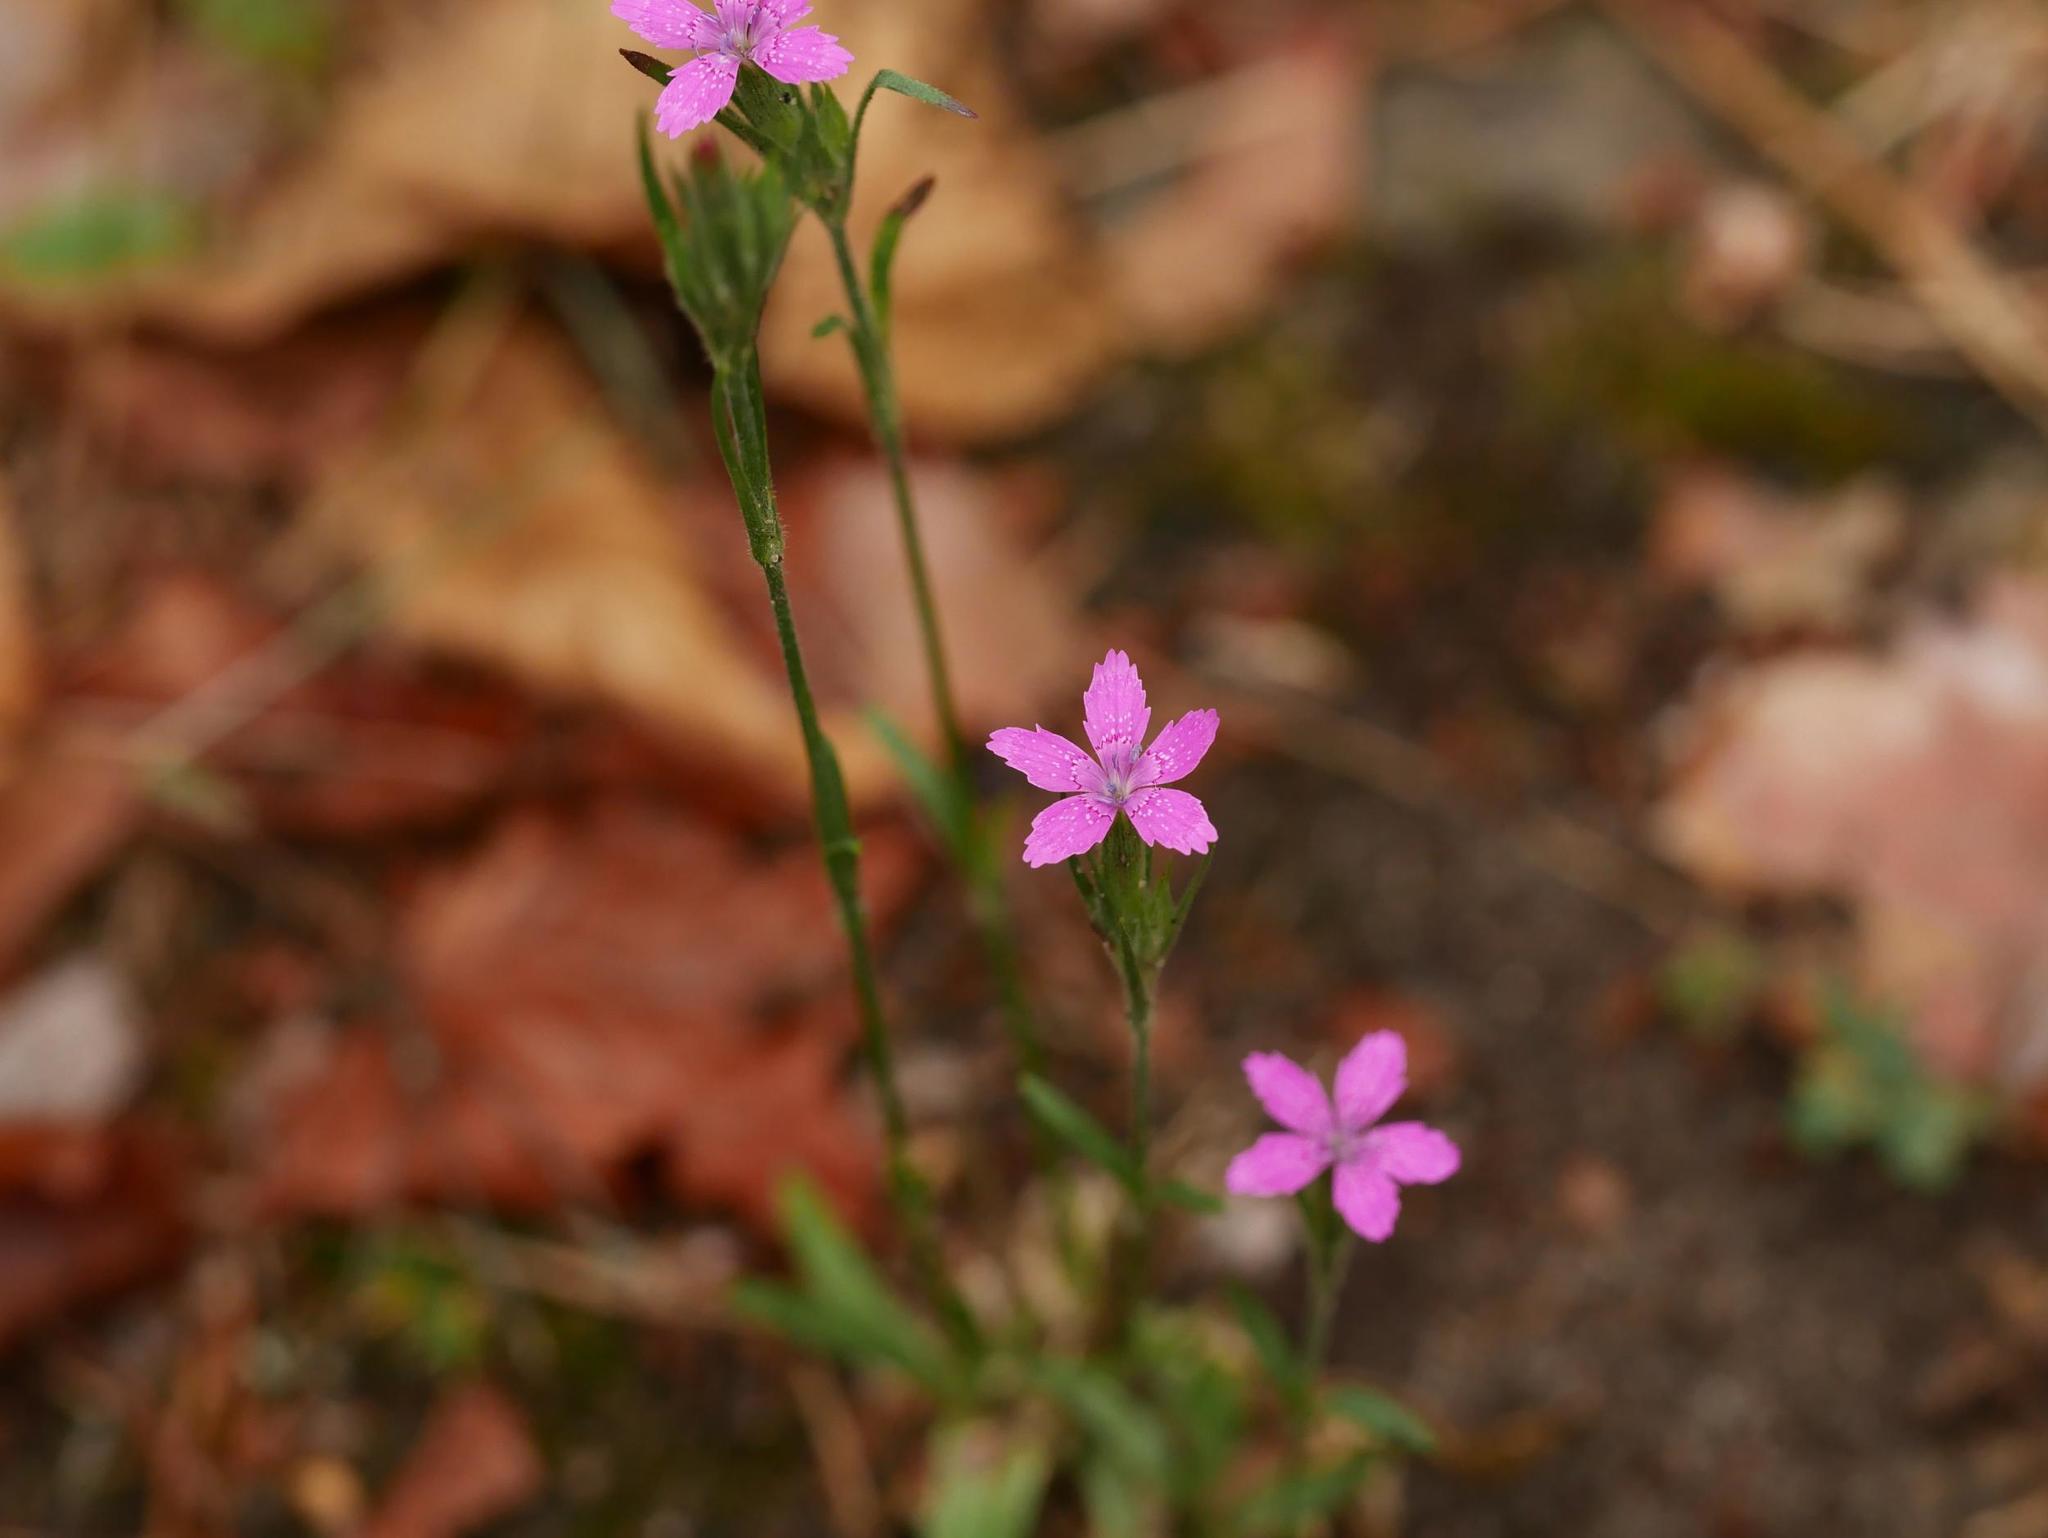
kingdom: Plantae
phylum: Tracheophyta
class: Magnoliopsida
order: Caryophyllales
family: Caryophyllaceae
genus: Dianthus
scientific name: Dianthus armeria
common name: Deptford pink
